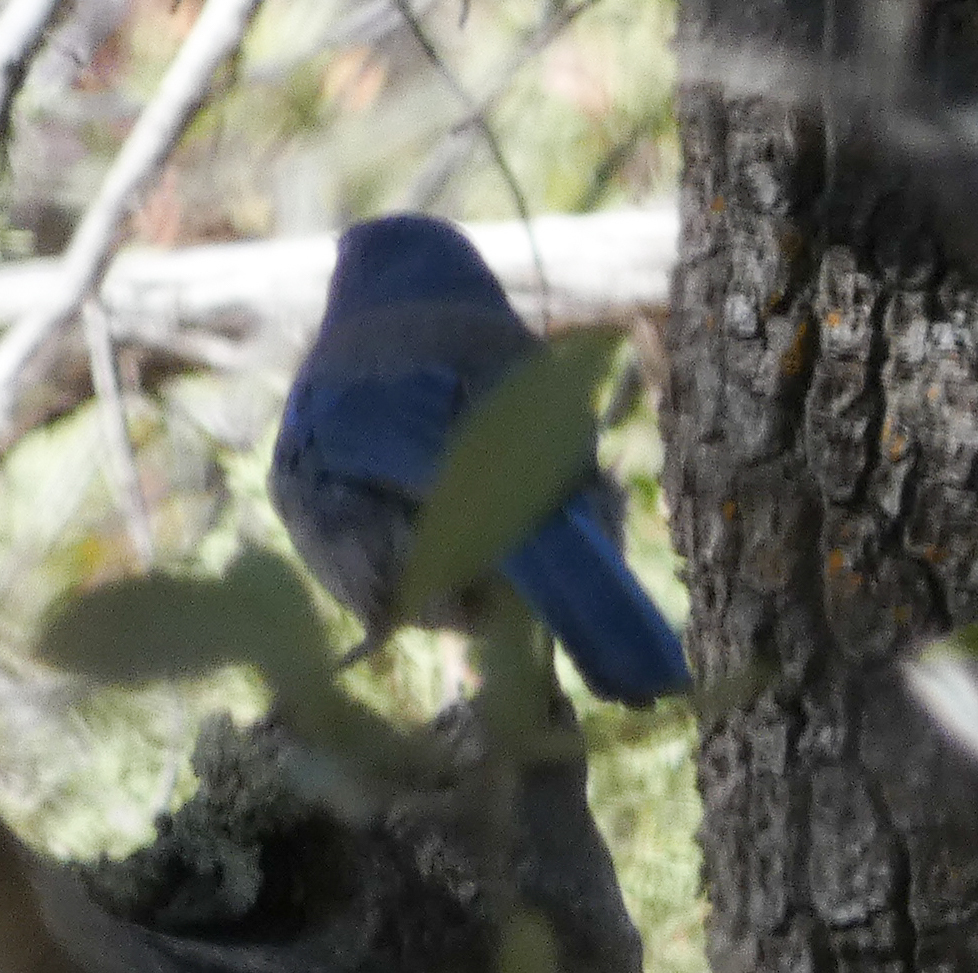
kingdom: Animalia
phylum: Chordata
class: Aves
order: Passeriformes
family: Corvidae
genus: Aphelocoma
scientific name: Aphelocoma woodhouseii
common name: Woodhouse's scrub-jay
